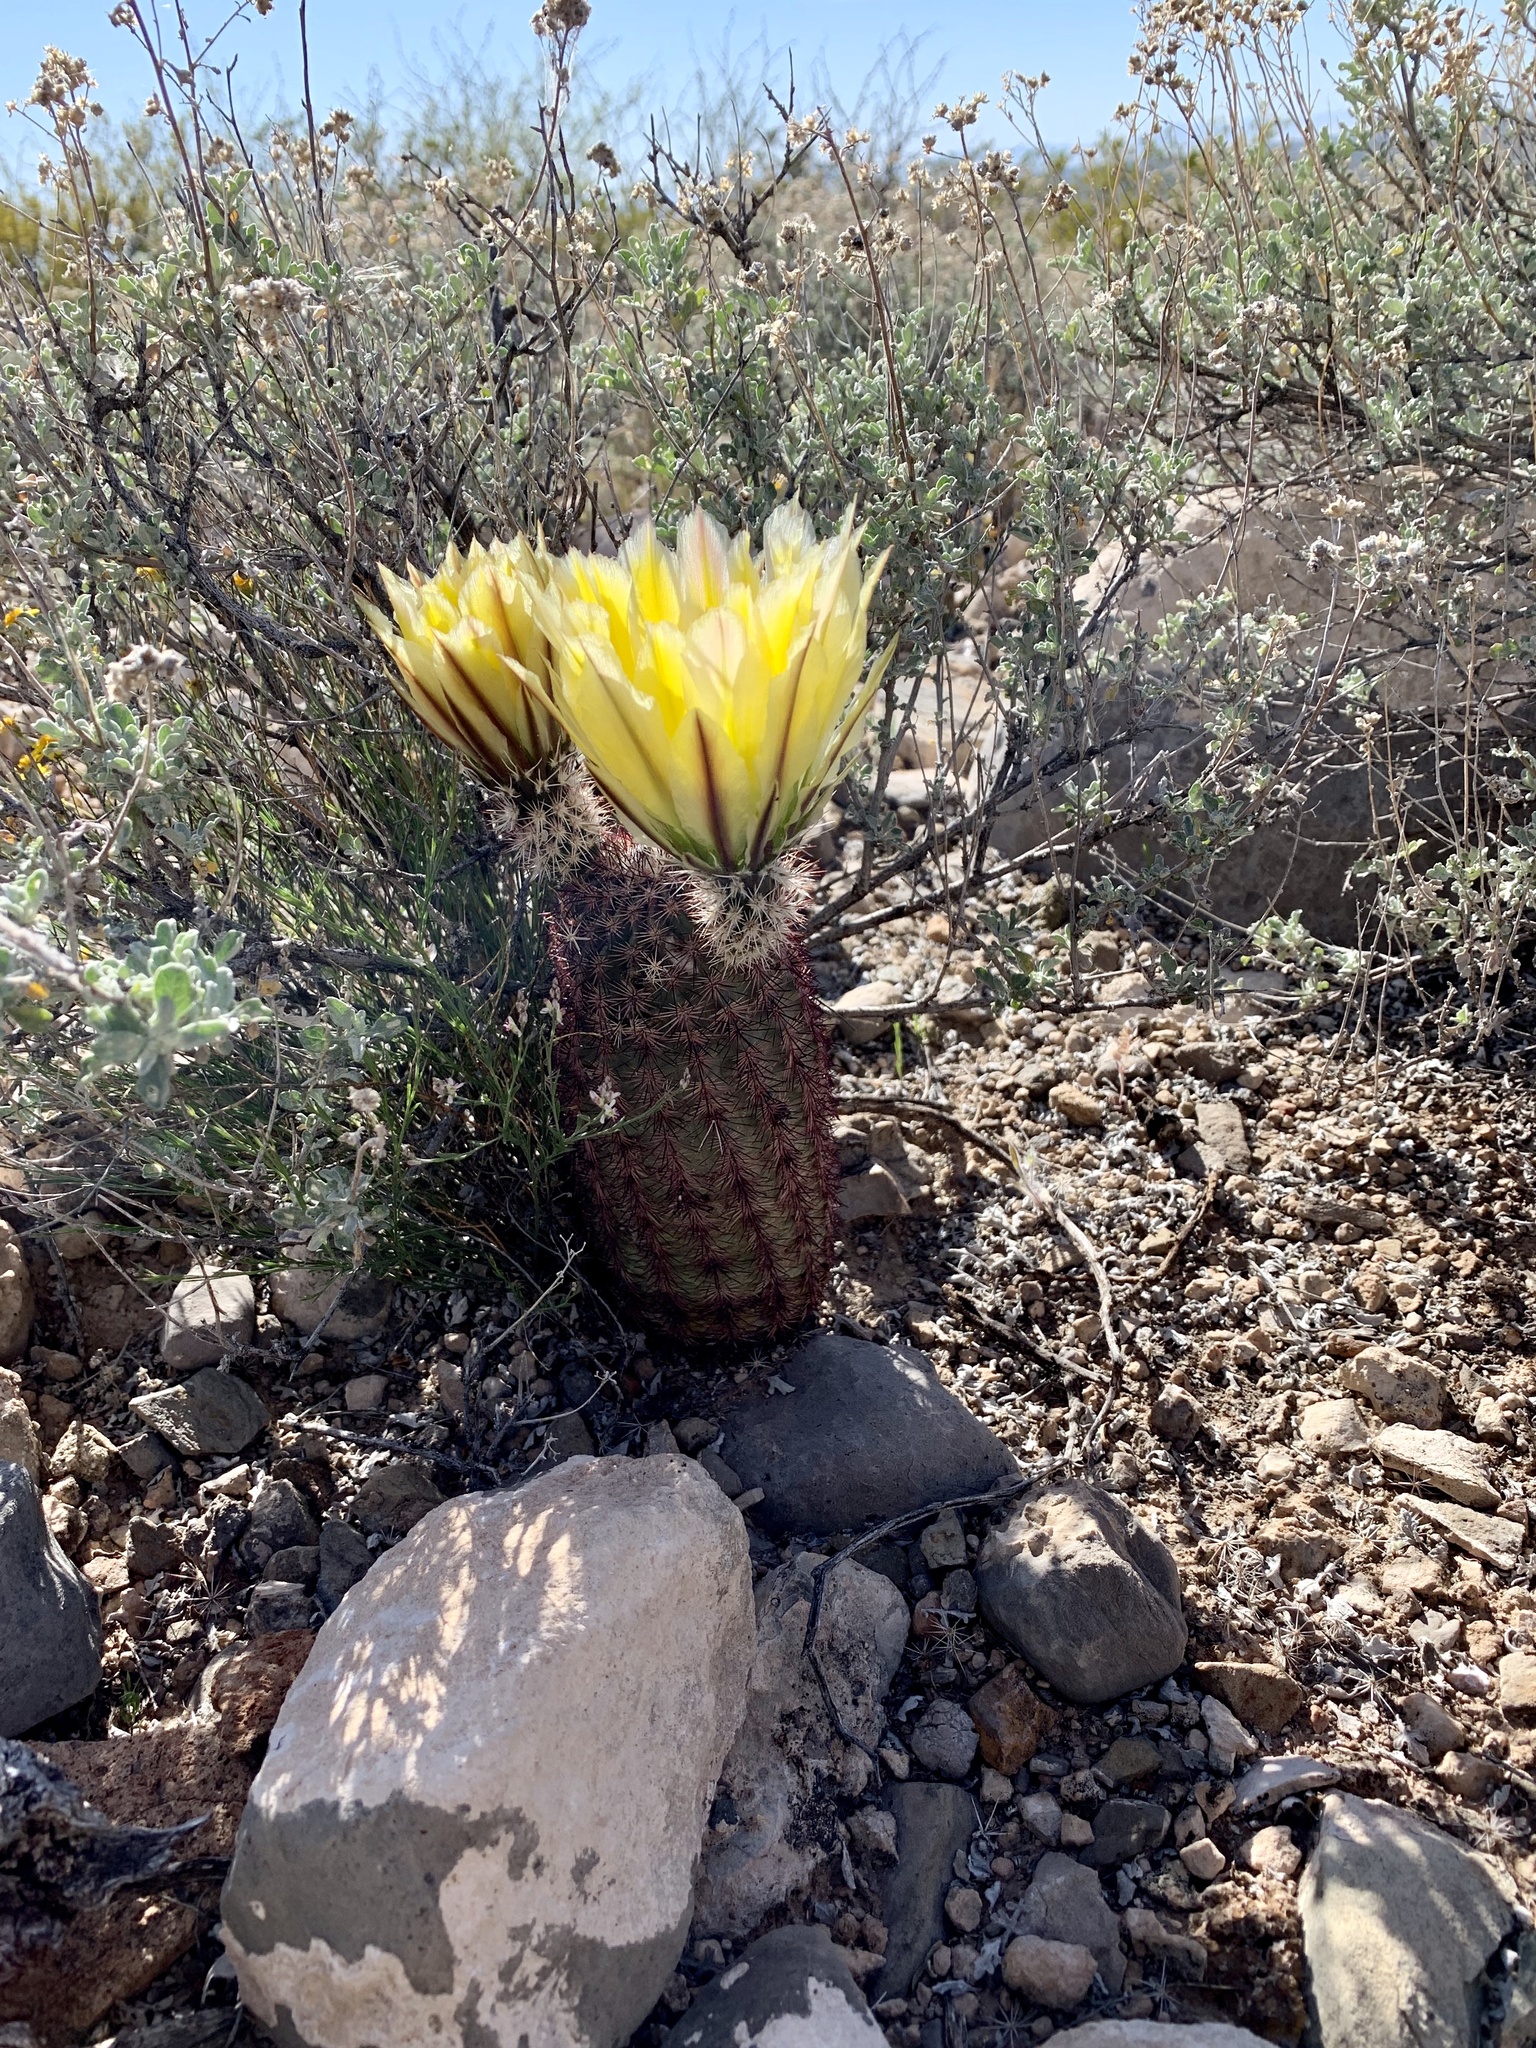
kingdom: Plantae
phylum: Tracheophyta
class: Magnoliopsida
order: Caryophyllales
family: Cactaceae
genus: Echinocereus
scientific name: Echinocereus dasyacanthus
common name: Spiny hedgehog cactus
